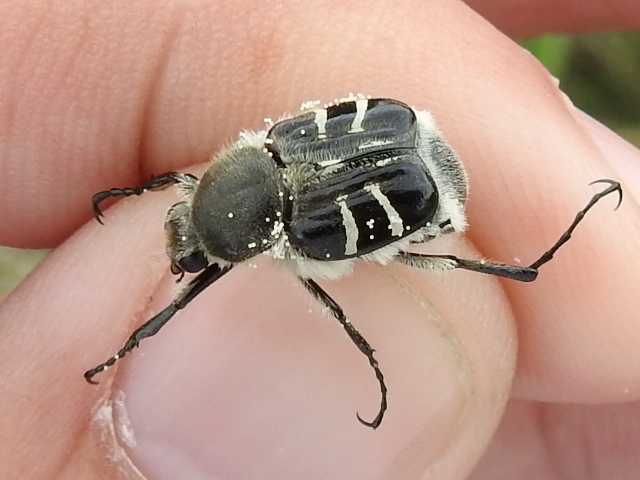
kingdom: Animalia
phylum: Arthropoda
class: Insecta
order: Coleoptera
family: Scarabaeidae
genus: Trichiotinus
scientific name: Trichiotinus texanus
